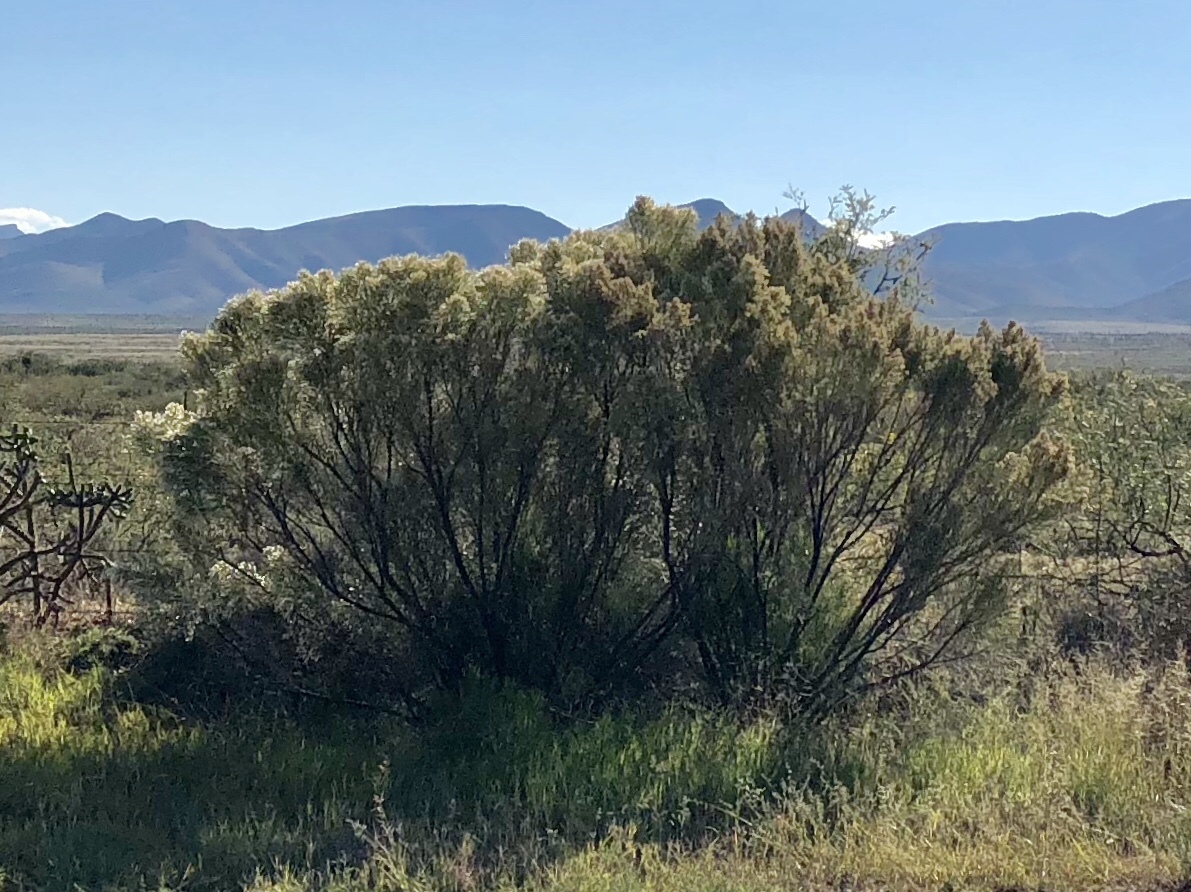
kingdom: Plantae
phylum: Tracheophyta
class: Magnoliopsida
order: Asterales
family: Asteraceae
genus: Baccharis
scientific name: Baccharis sarothroides
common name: Desert-broom
